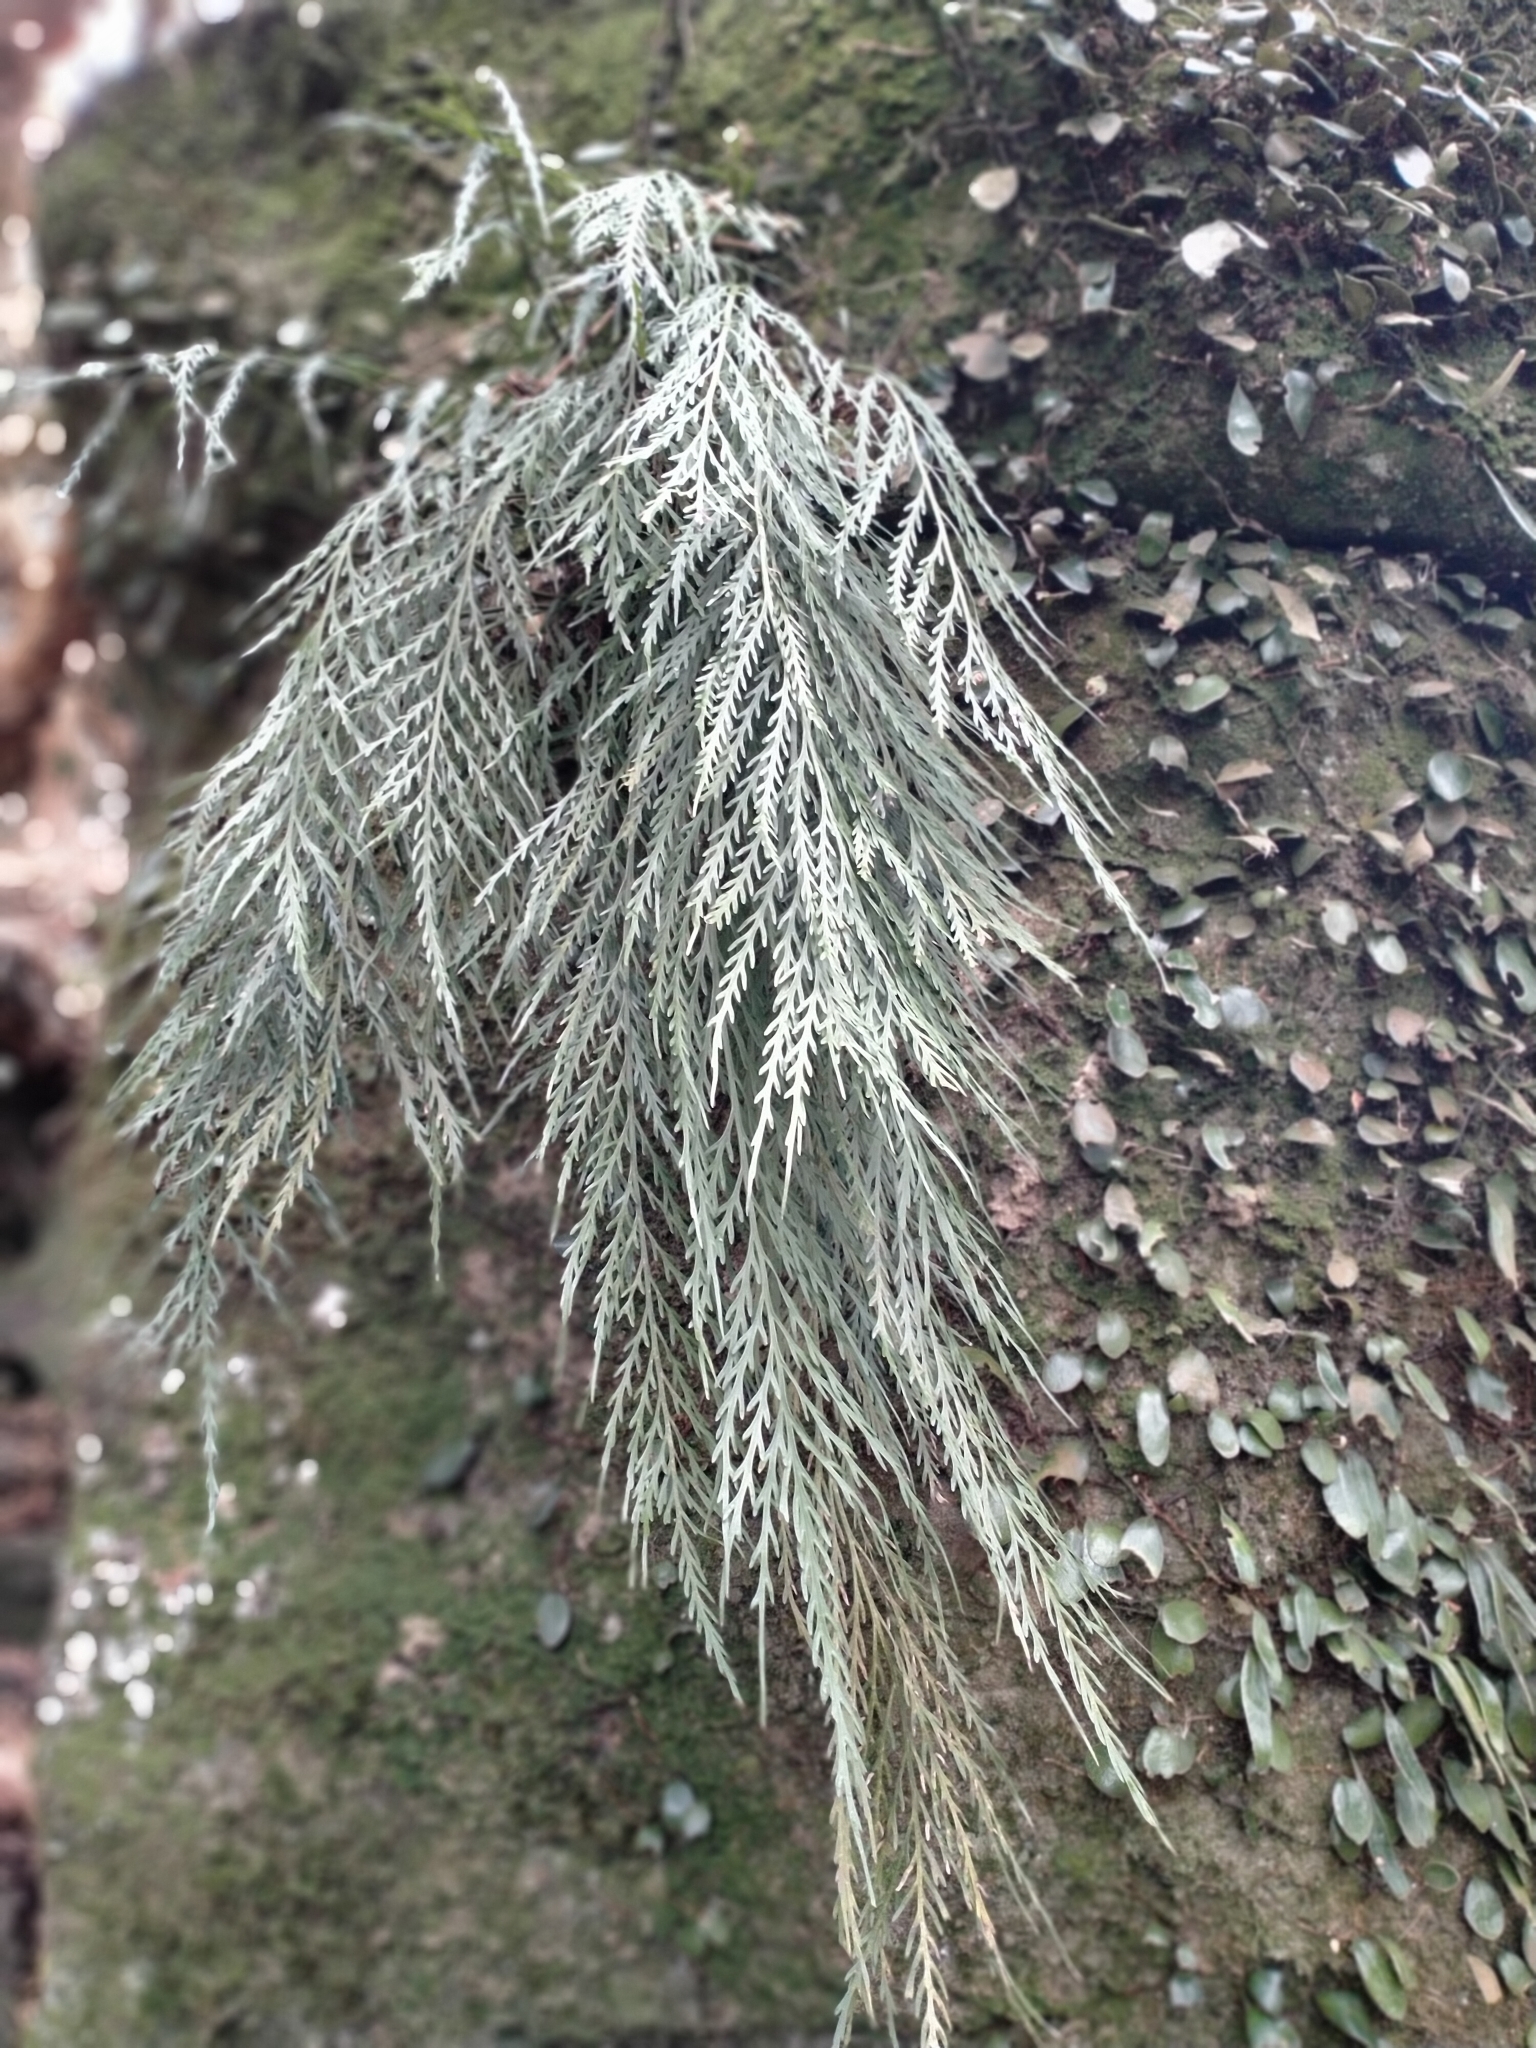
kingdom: Plantae
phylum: Tracheophyta
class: Polypodiopsida
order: Polypodiales
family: Aspleniaceae
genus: Asplenium
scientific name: Asplenium flaccidum
